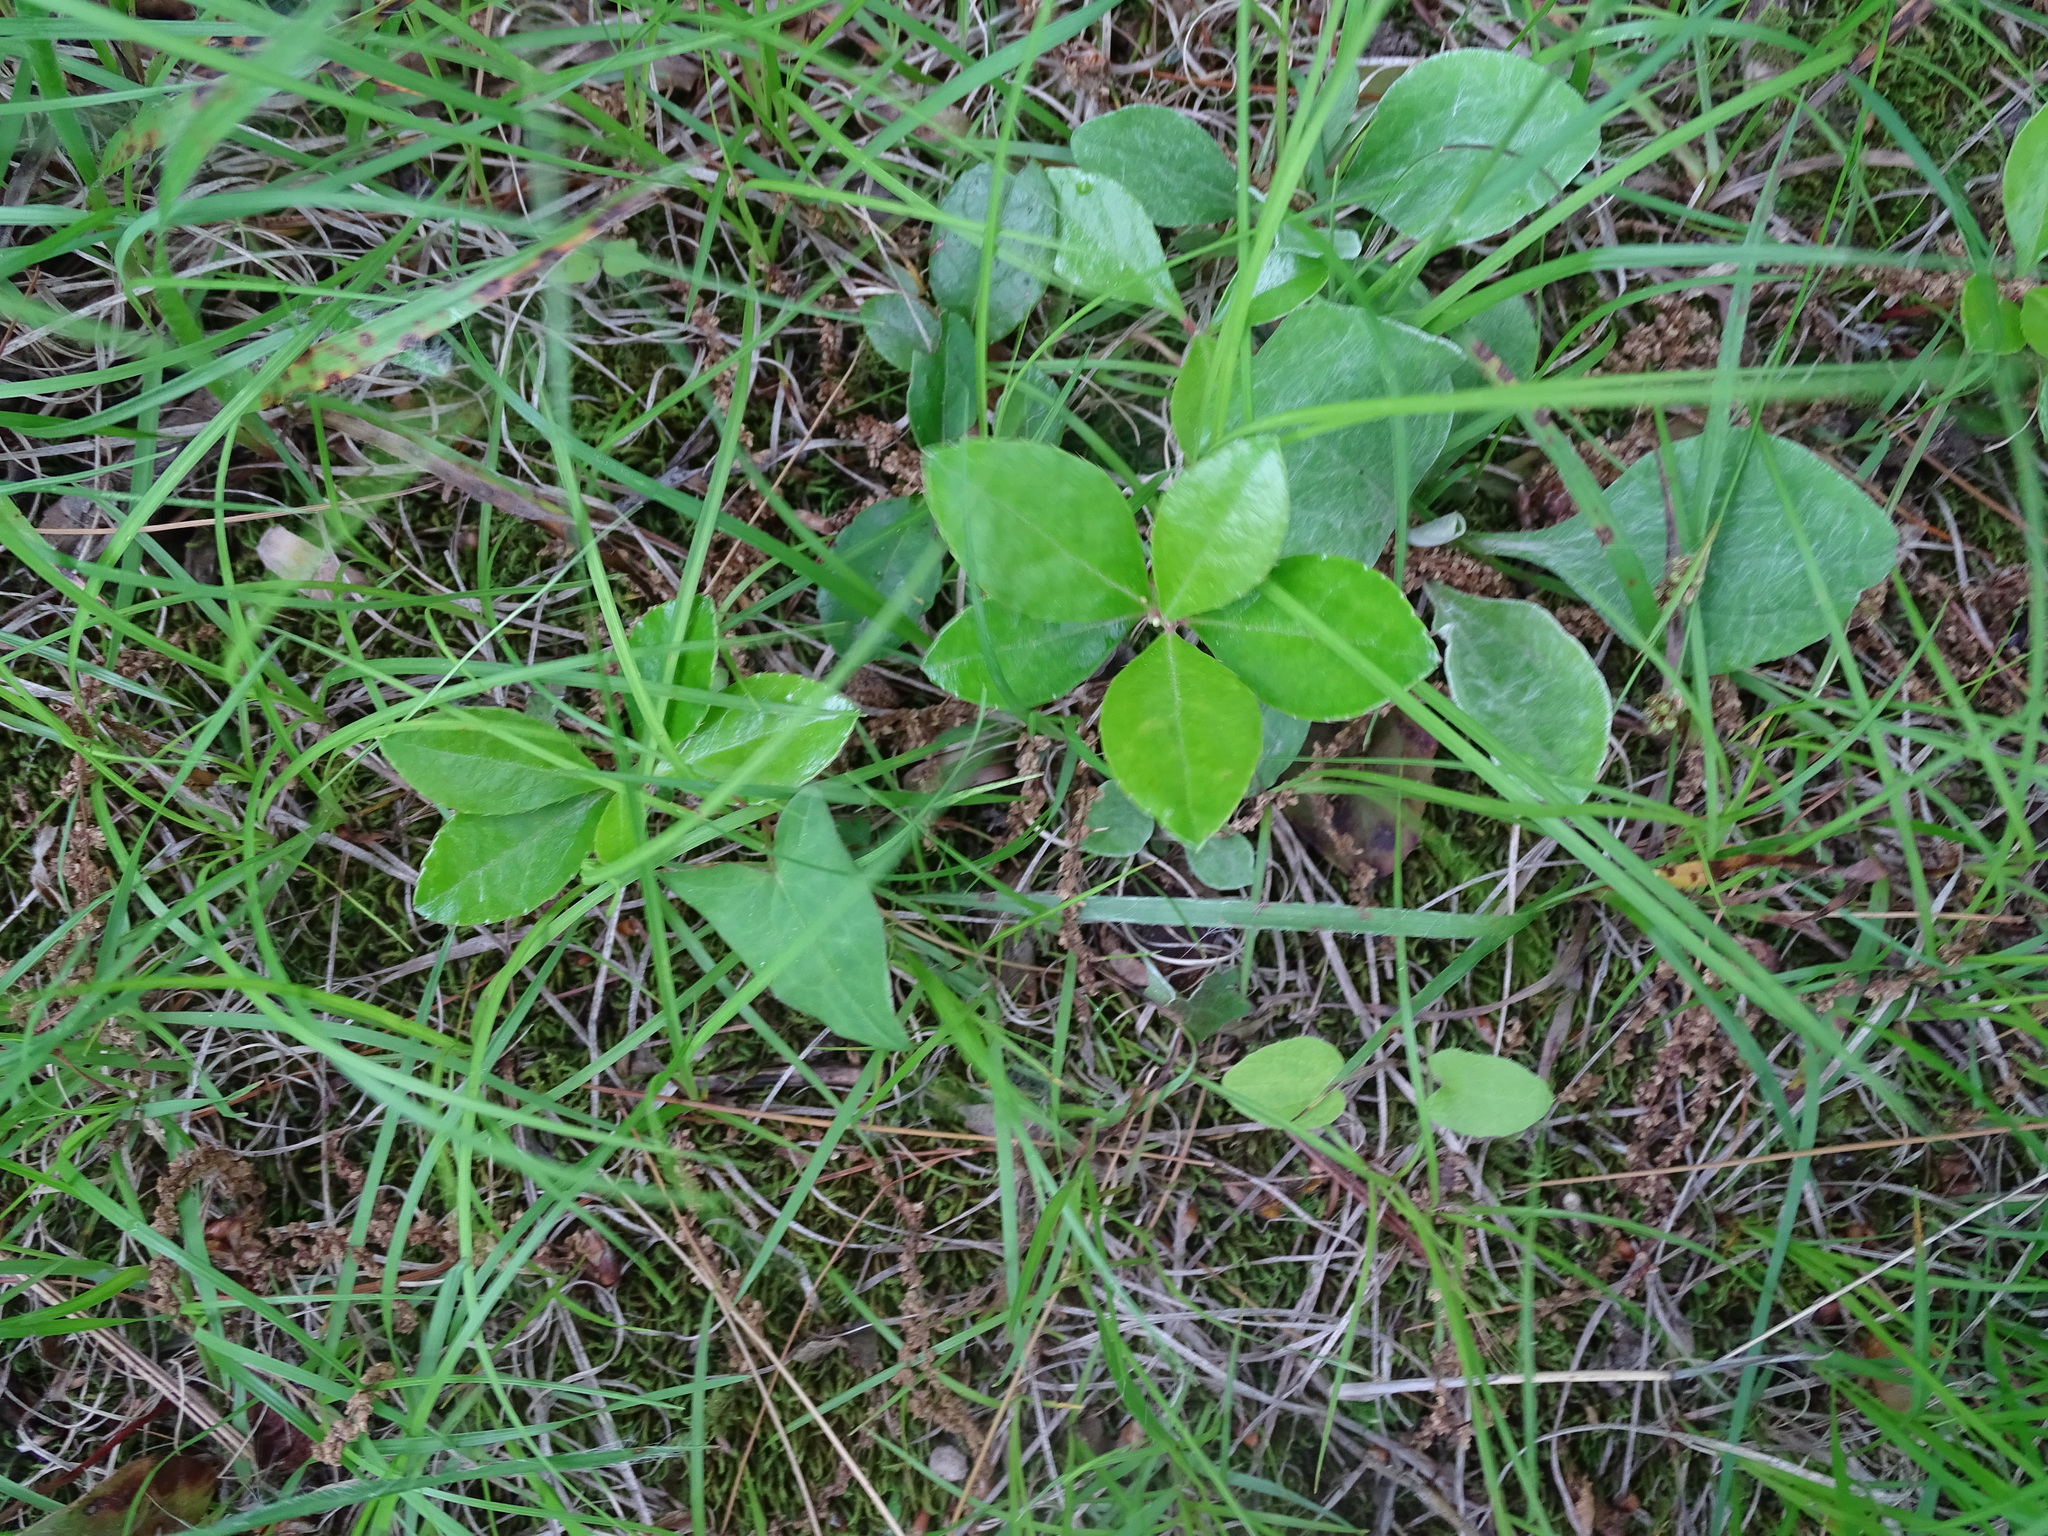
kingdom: Plantae
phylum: Tracheophyta
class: Magnoliopsida
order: Ericales
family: Ericaceae
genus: Gaultheria
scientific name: Gaultheria procumbens
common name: Checkerberry
